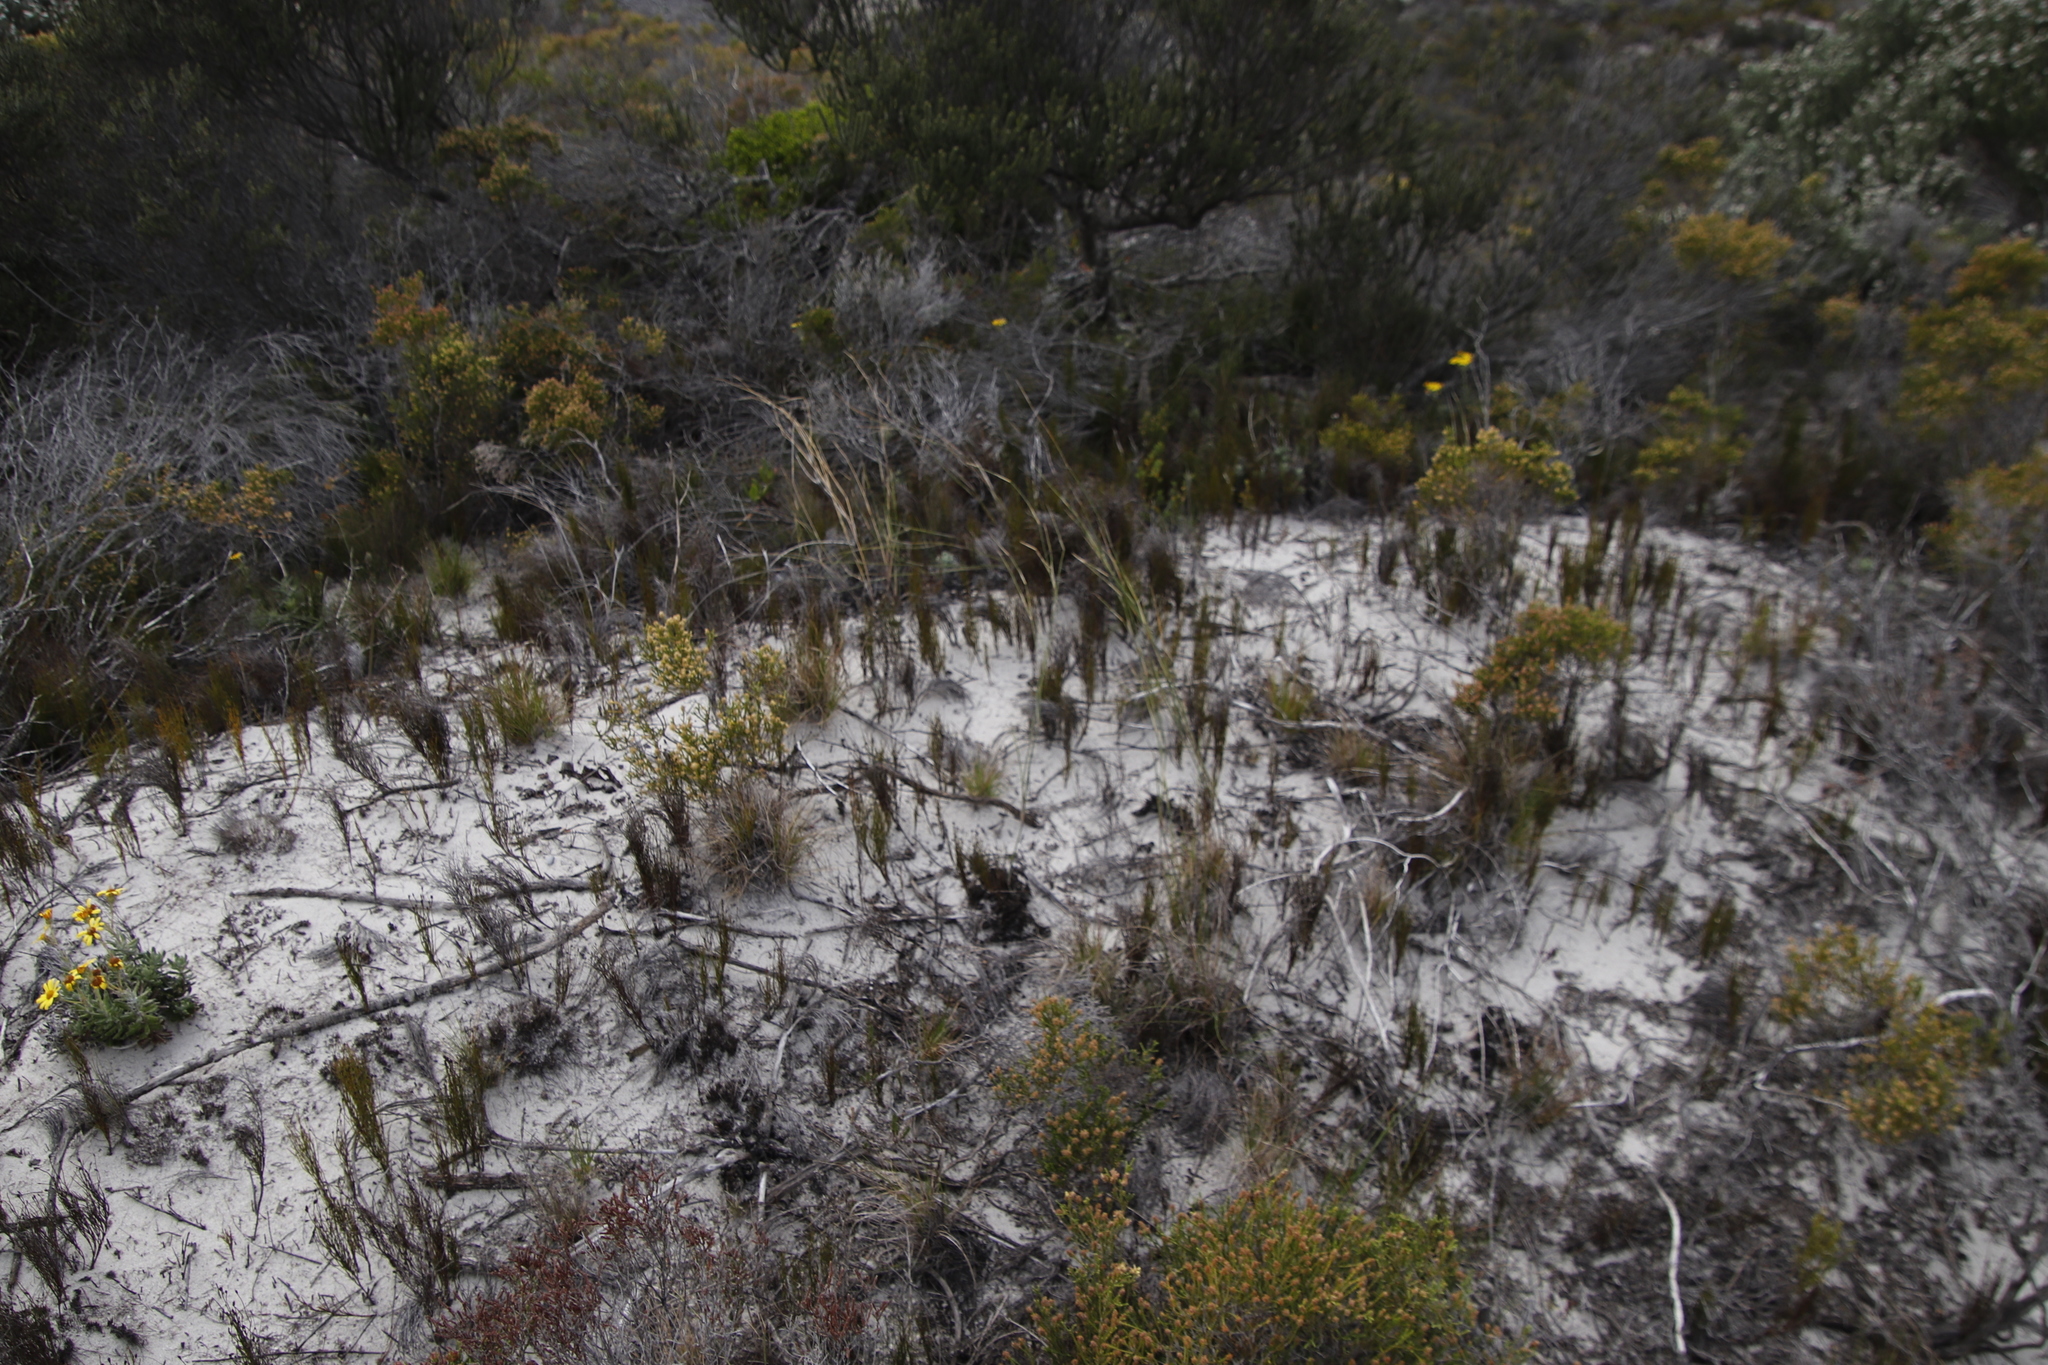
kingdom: Plantae
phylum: Tracheophyta
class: Liliopsida
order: Poales
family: Restionaceae
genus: Restio
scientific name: Restio eleocharis
